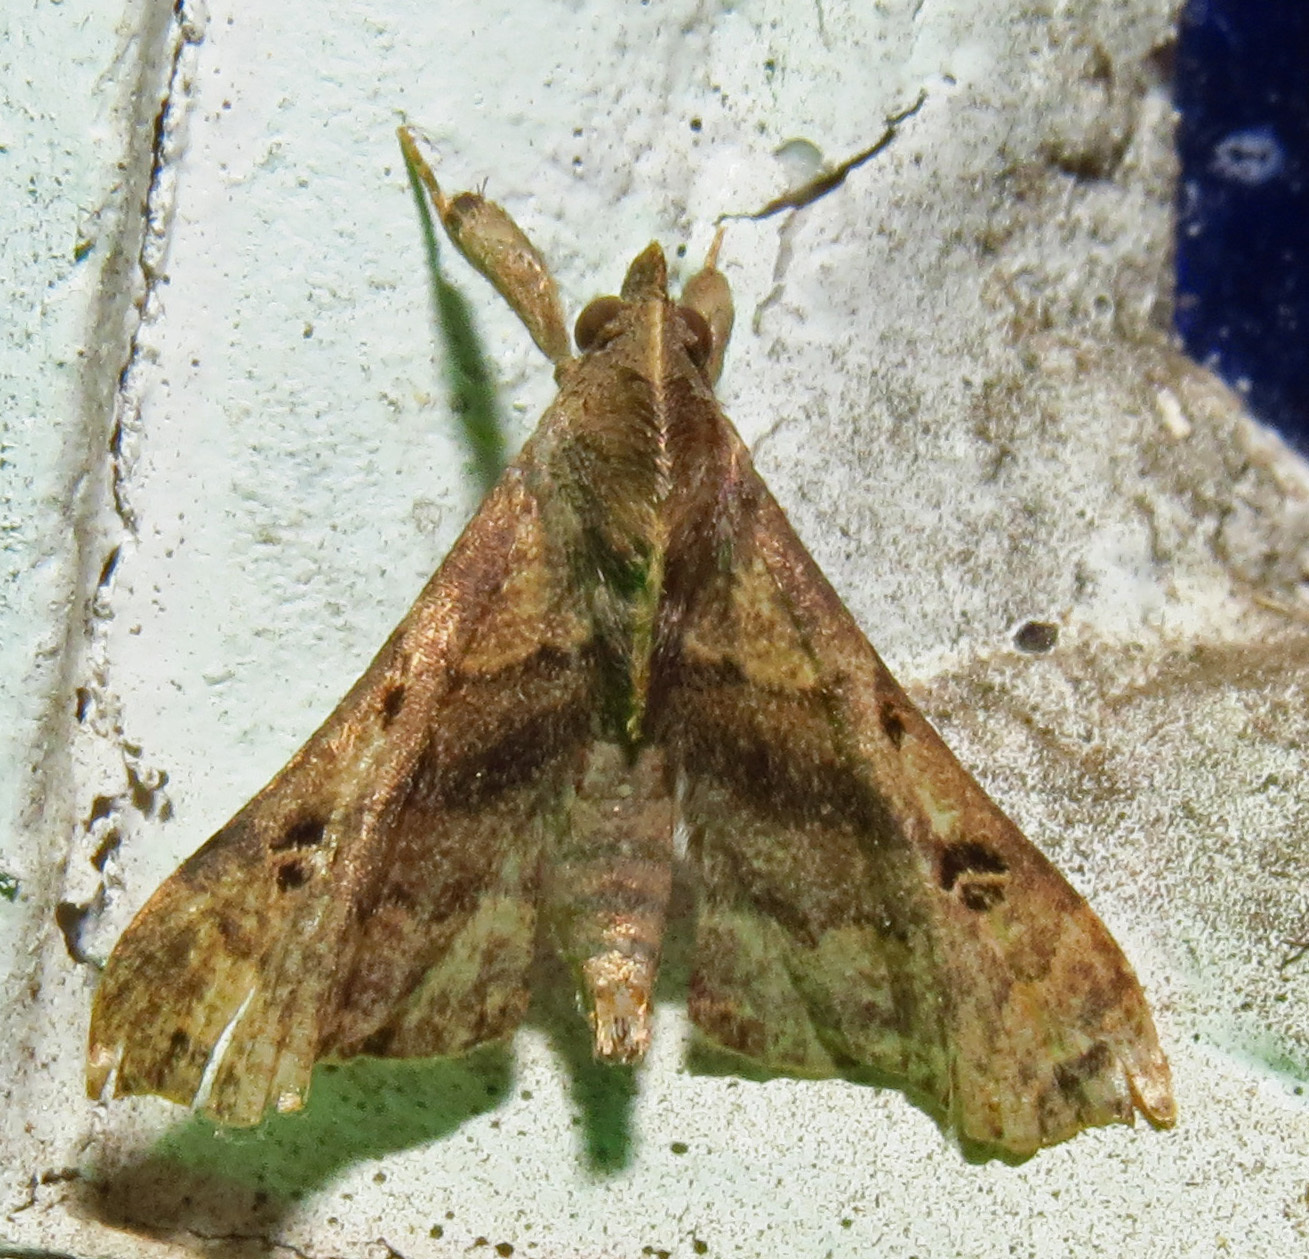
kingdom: Animalia
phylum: Arthropoda
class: Insecta
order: Lepidoptera
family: Erebidae
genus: Palthis
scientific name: Palthis asopialis
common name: Faint-spotted palthis moth
